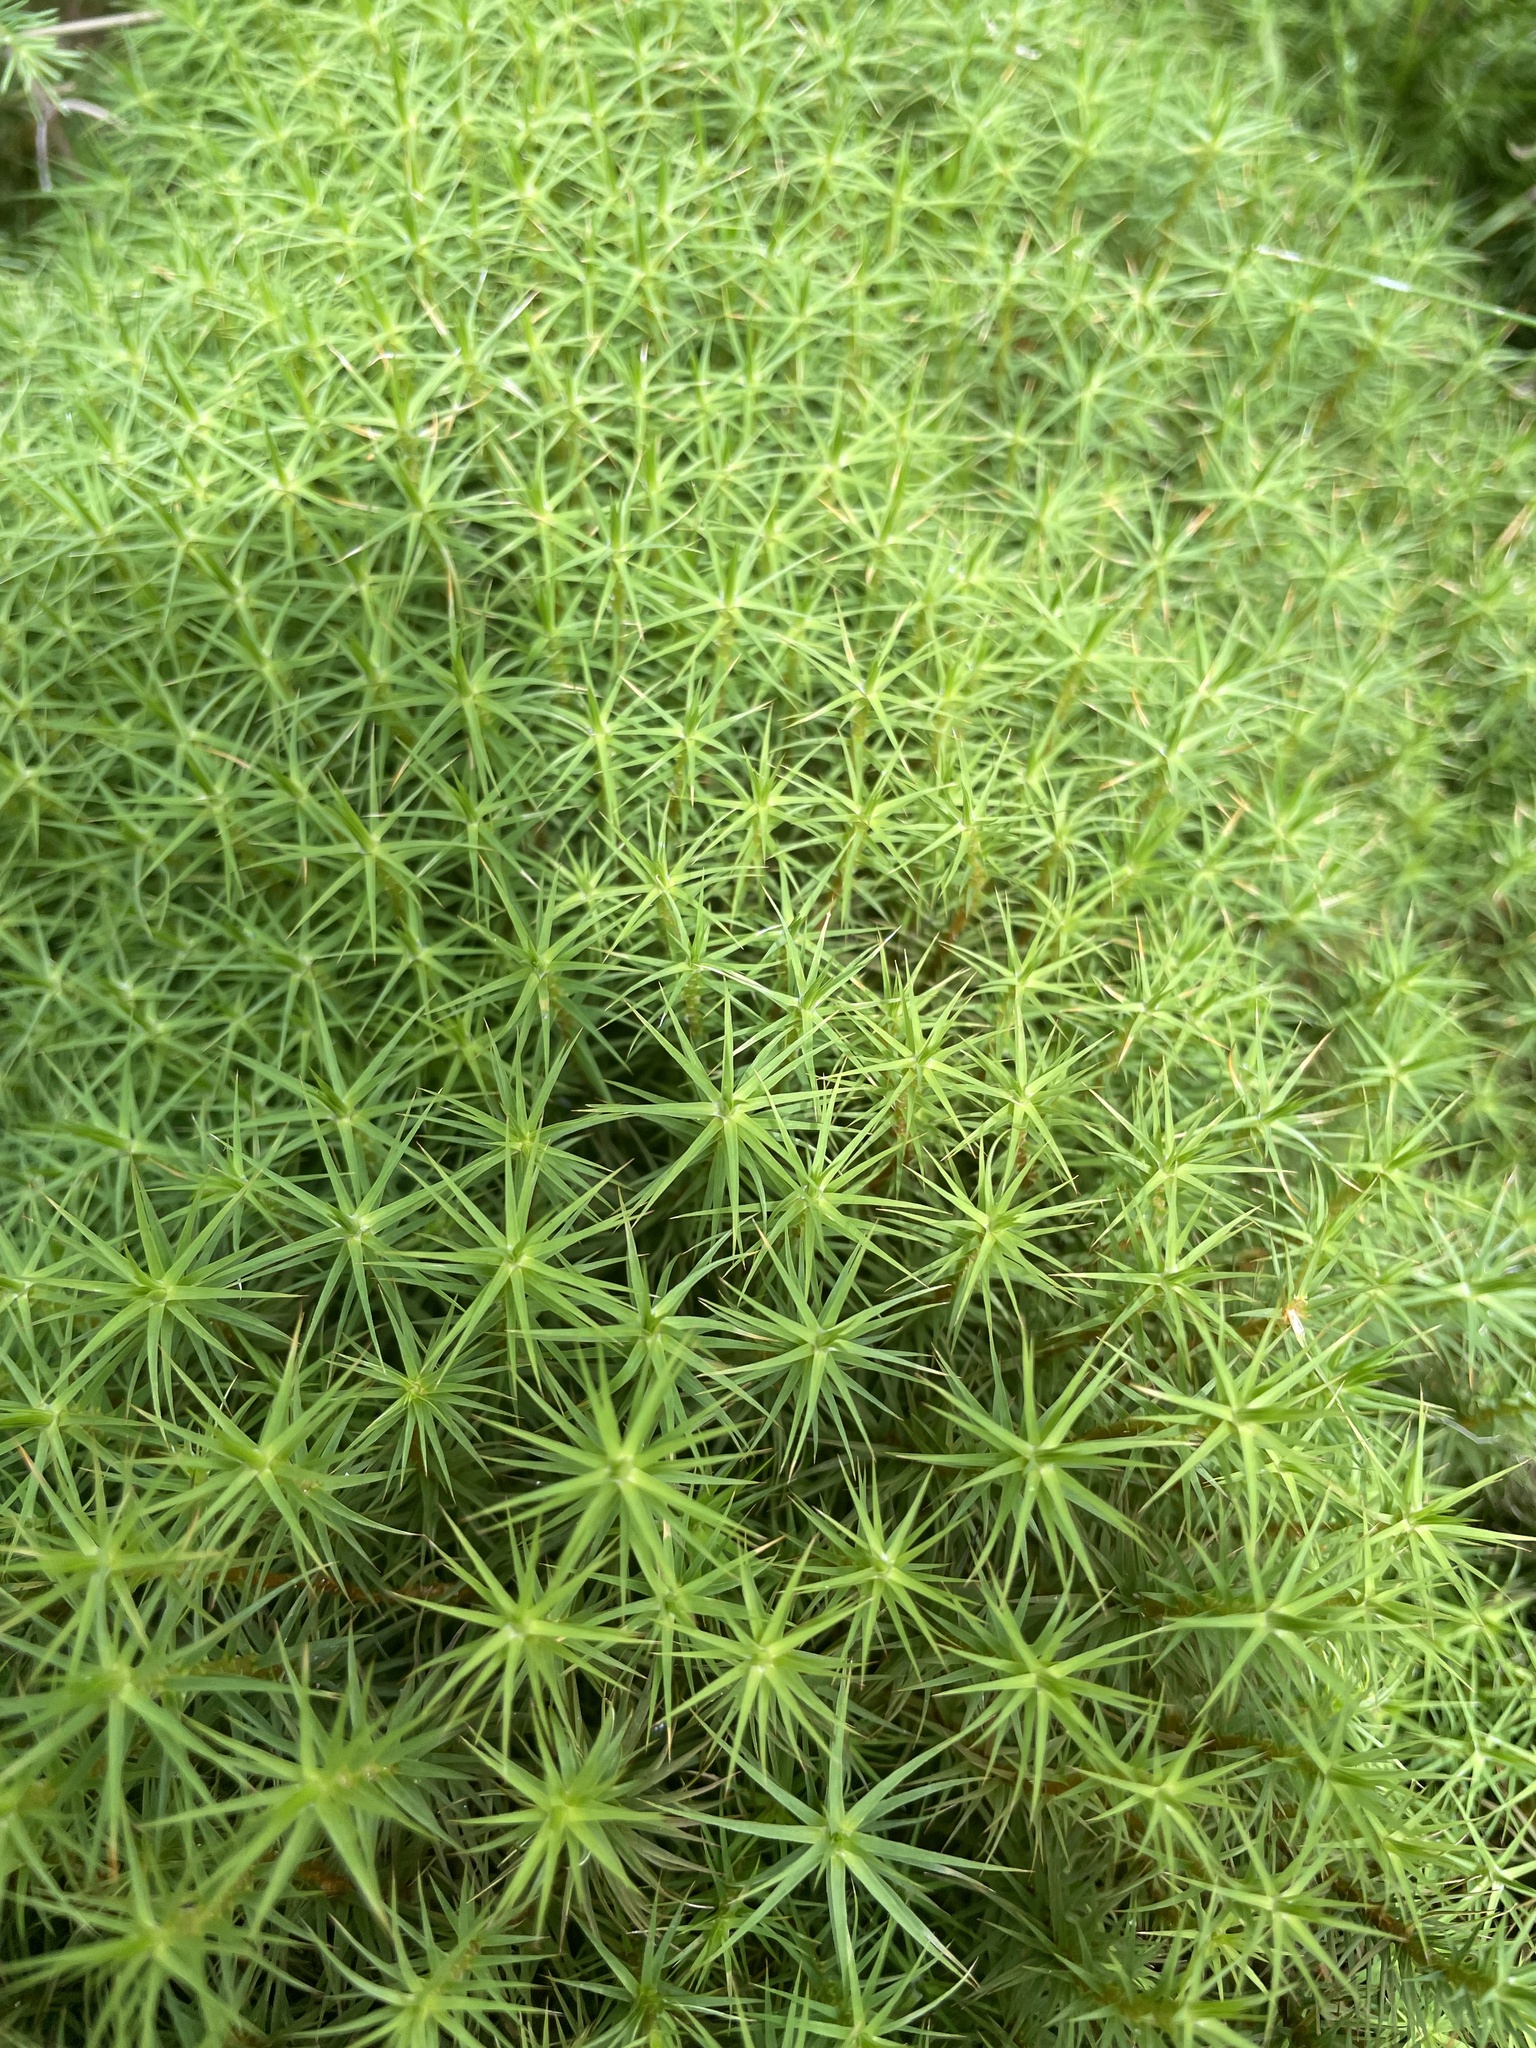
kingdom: Plantae
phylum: Bryophyta
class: Polytrichopsida
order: Polytrichales
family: Polytrichaceae
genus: Polytrichum
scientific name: Polytrichum commune
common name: Common haircap
